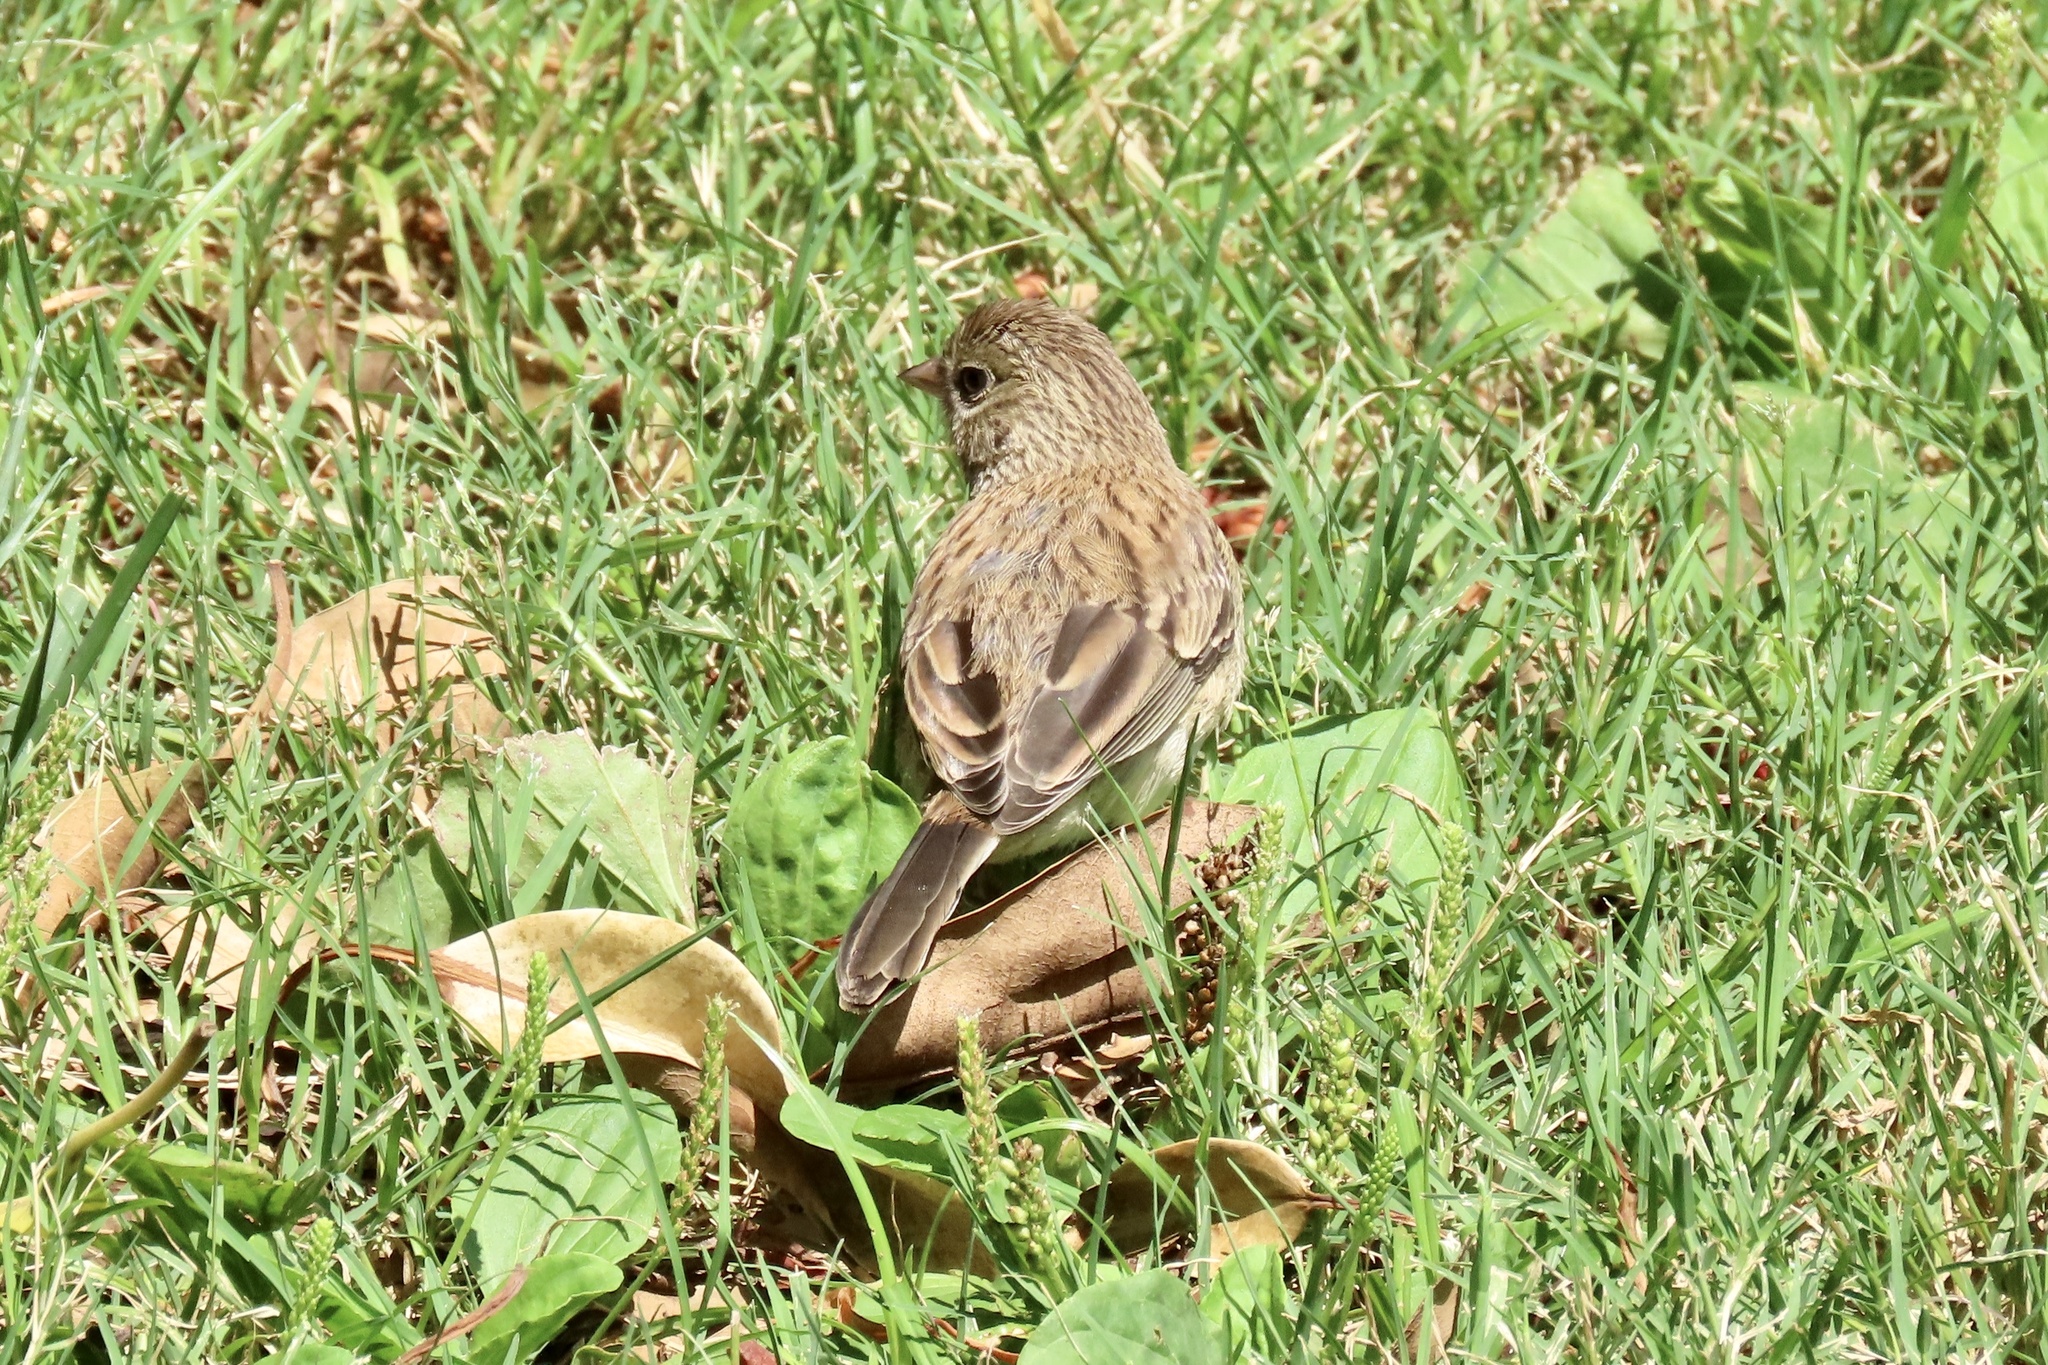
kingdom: Animalia
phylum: Chordata
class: Aves
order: Passeriformes
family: Passerellidae
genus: Junco
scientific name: Junco hyemalis
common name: Dark-eyed junco
